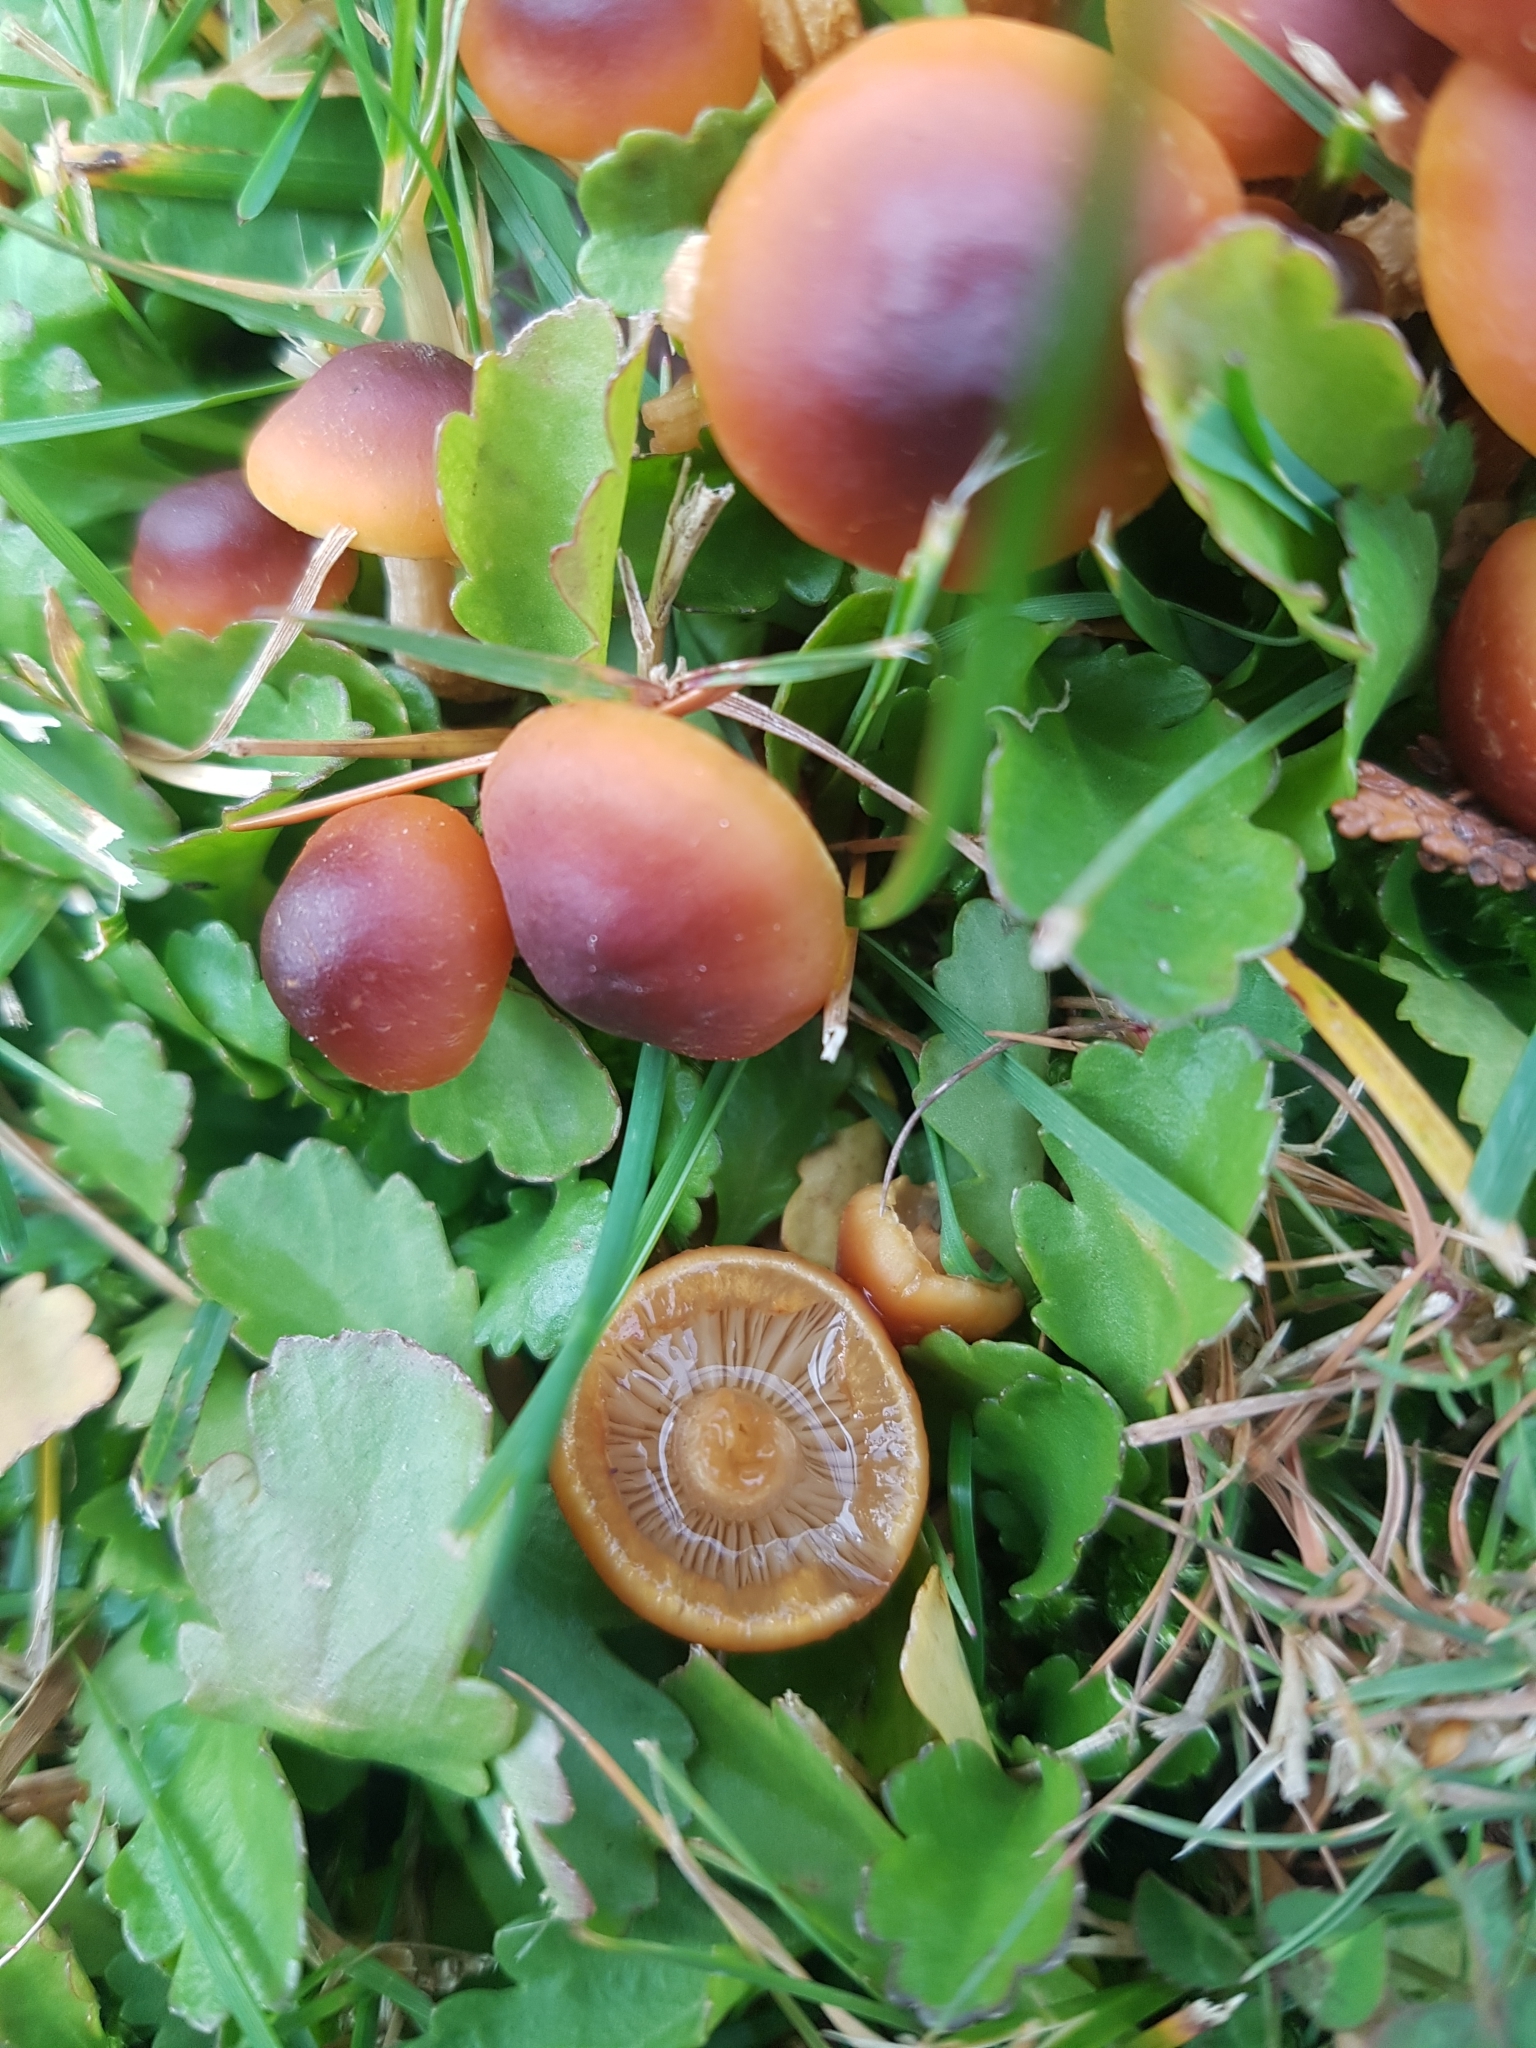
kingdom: Fungi
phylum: Basidiomycota
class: Agaricomycetes
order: Agaricales
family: Strophariaceae
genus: Hypholoma
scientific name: Hypholoma frowardii
